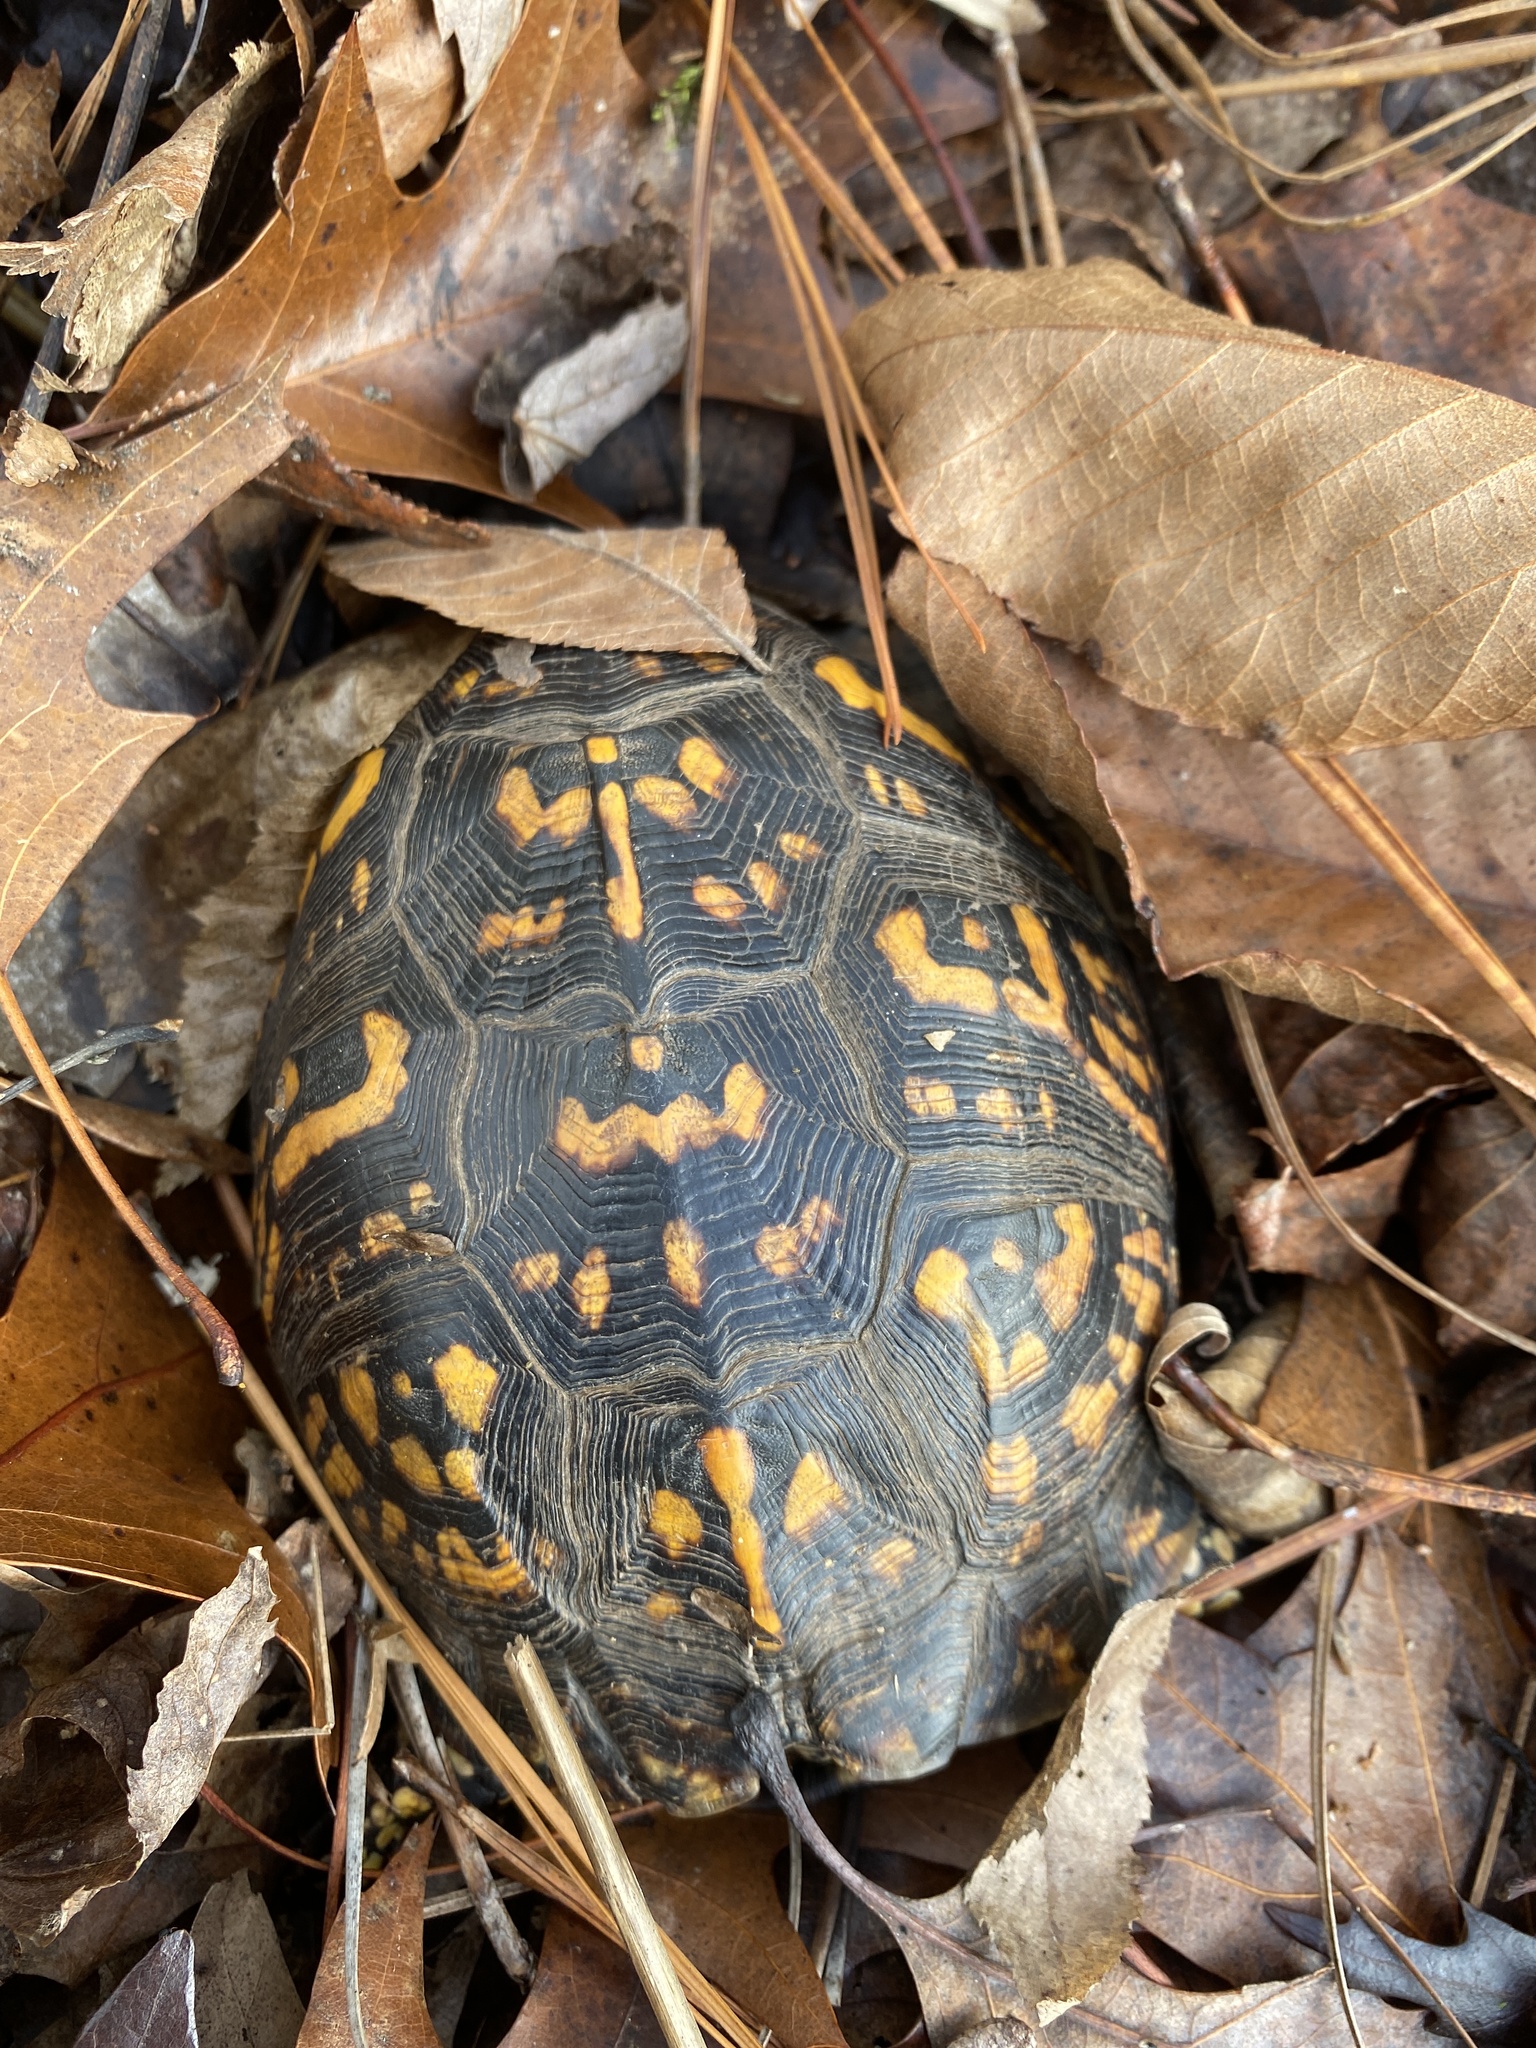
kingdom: Animalia
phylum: Chordata
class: Testudines
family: Emydidae
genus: Terrapene
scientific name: Terrapene carolina
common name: Common box turtle
